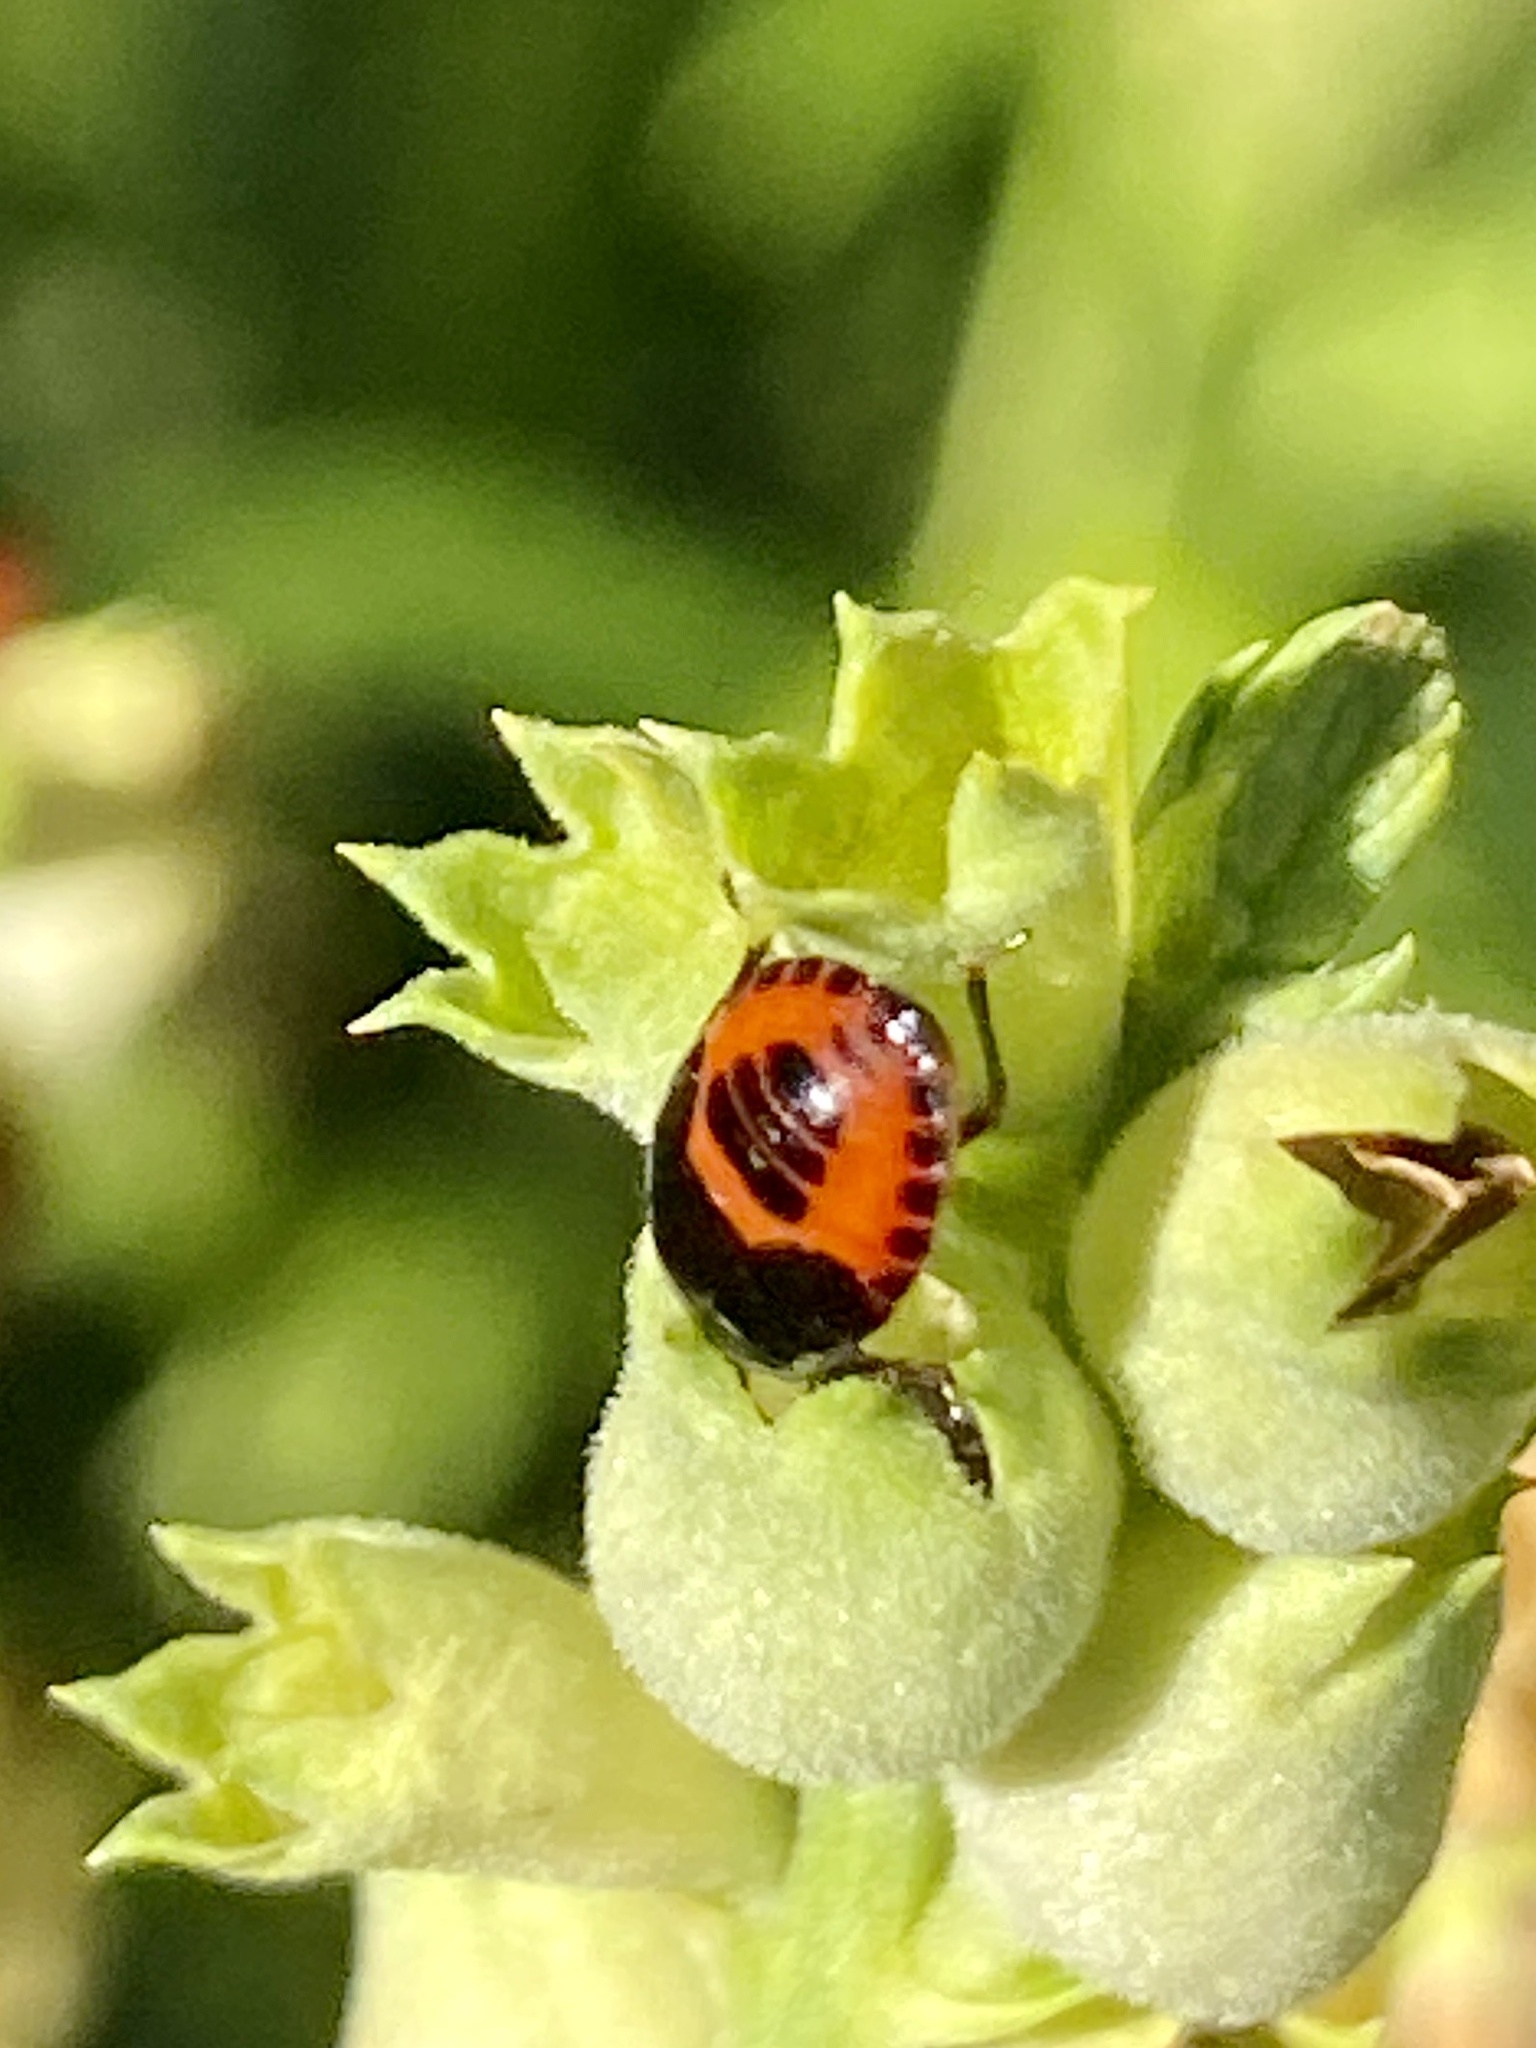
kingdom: Animalia
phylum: Arthropoda
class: Insecta
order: Hemiptera
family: Cydnidae
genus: Sehirus
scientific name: Sehirus cinctus
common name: White-margined burrower bug
